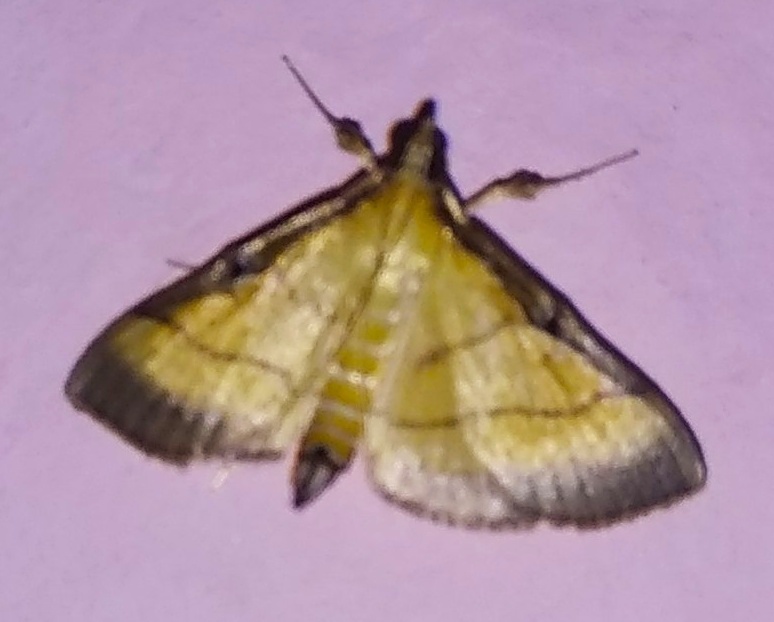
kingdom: Animalia
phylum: Arthropoda
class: Insecta
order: Lepidoptera
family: Crambidae
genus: Cnaphalocrocis
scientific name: Cnaphalocrocis medinalis
